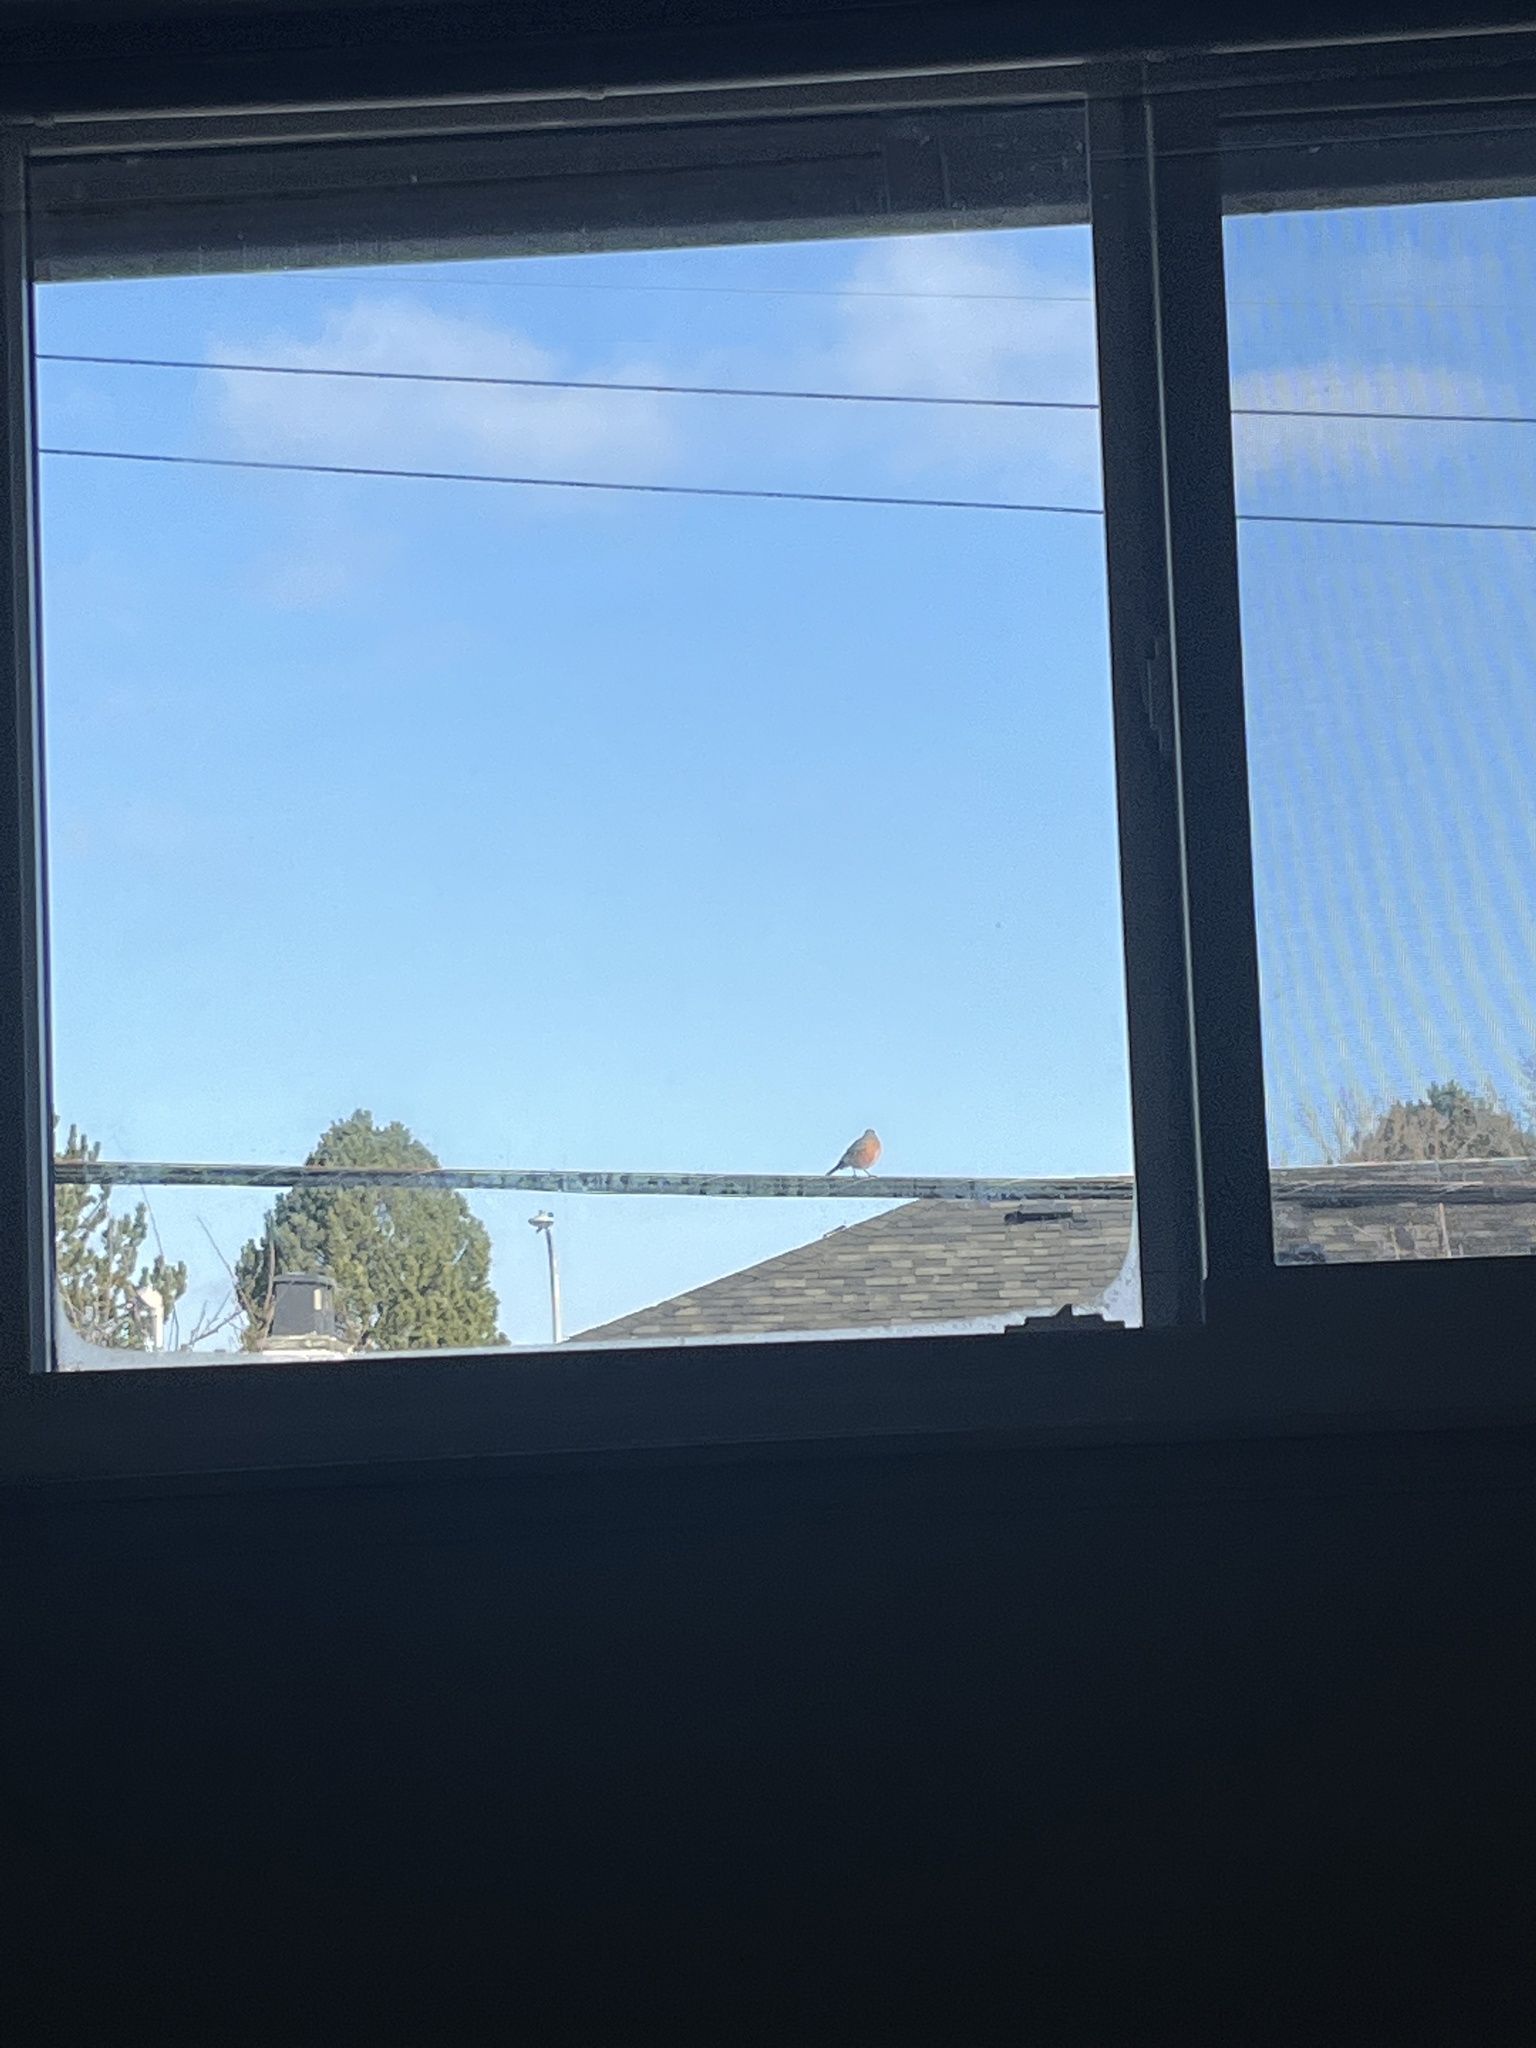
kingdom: Animalia
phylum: Chordata
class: Aves
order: Passeriformes
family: Turdidae
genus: Turdus
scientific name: Turdus migratorius
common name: American robin
